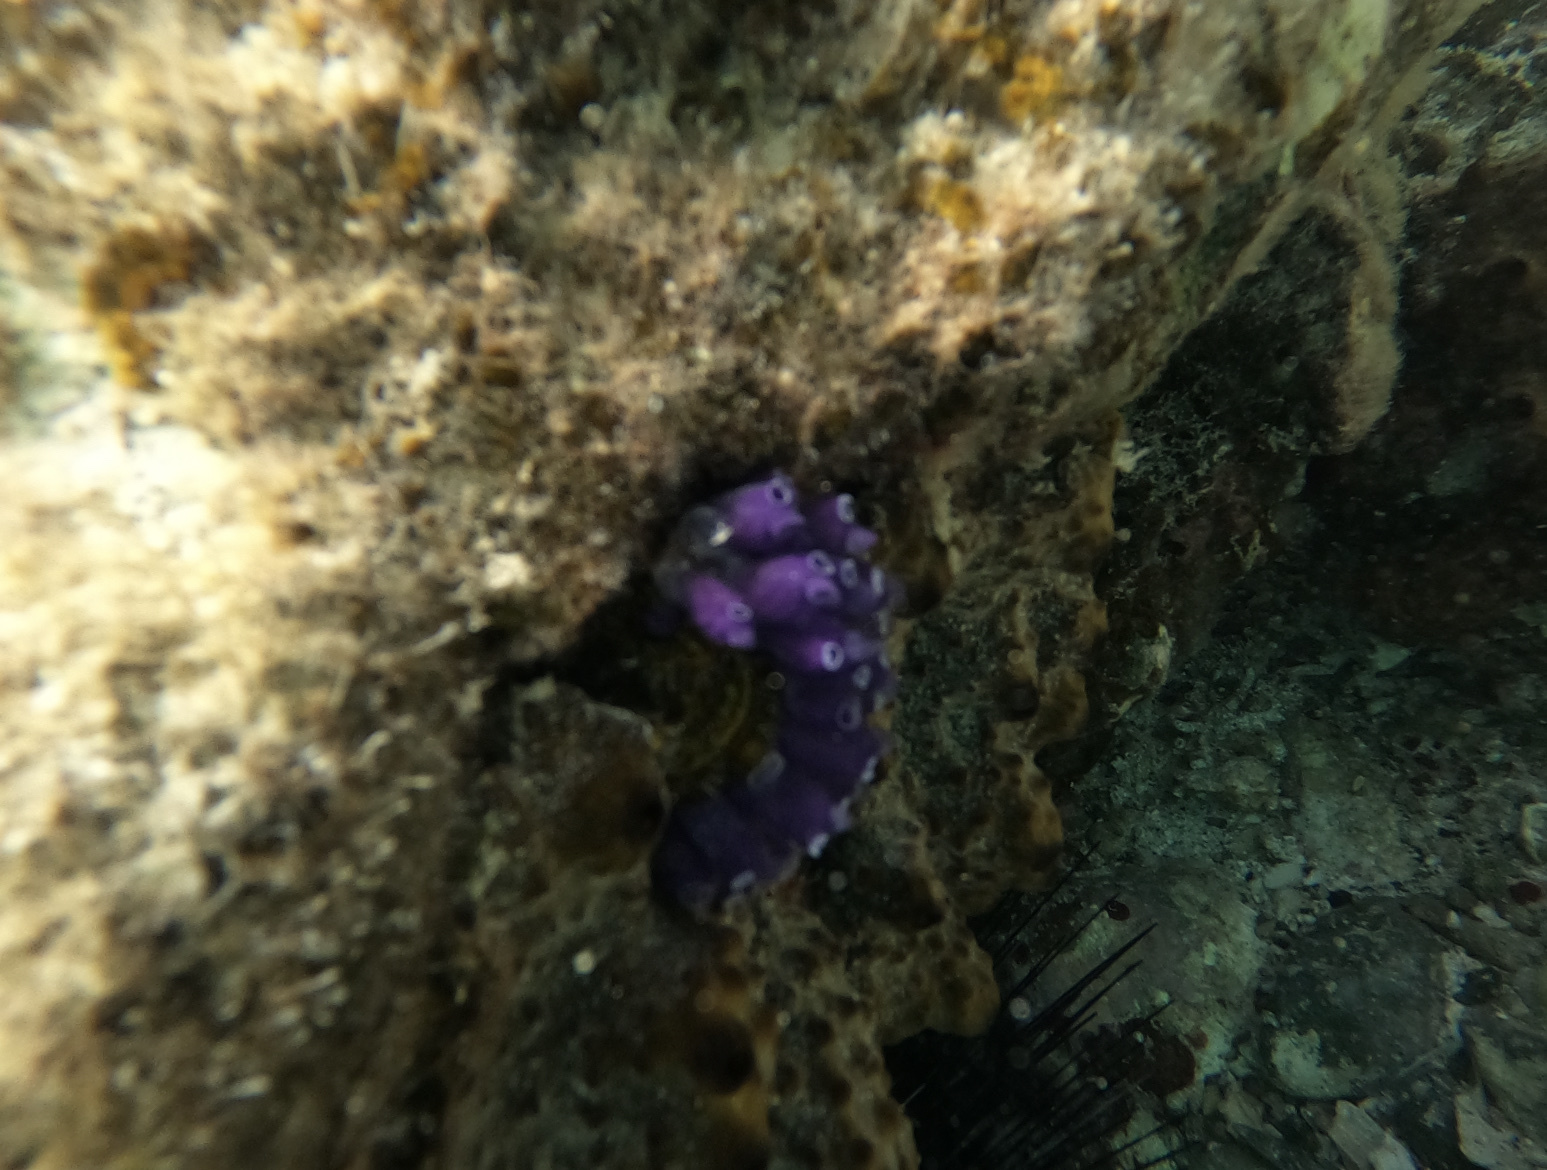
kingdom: Animalia
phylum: Chordata
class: Ascidiacea
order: Aplousobranchia
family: Clavelinidae
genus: Clavelina
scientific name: Clavelina puertosecensis
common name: Blue bell tunicate
